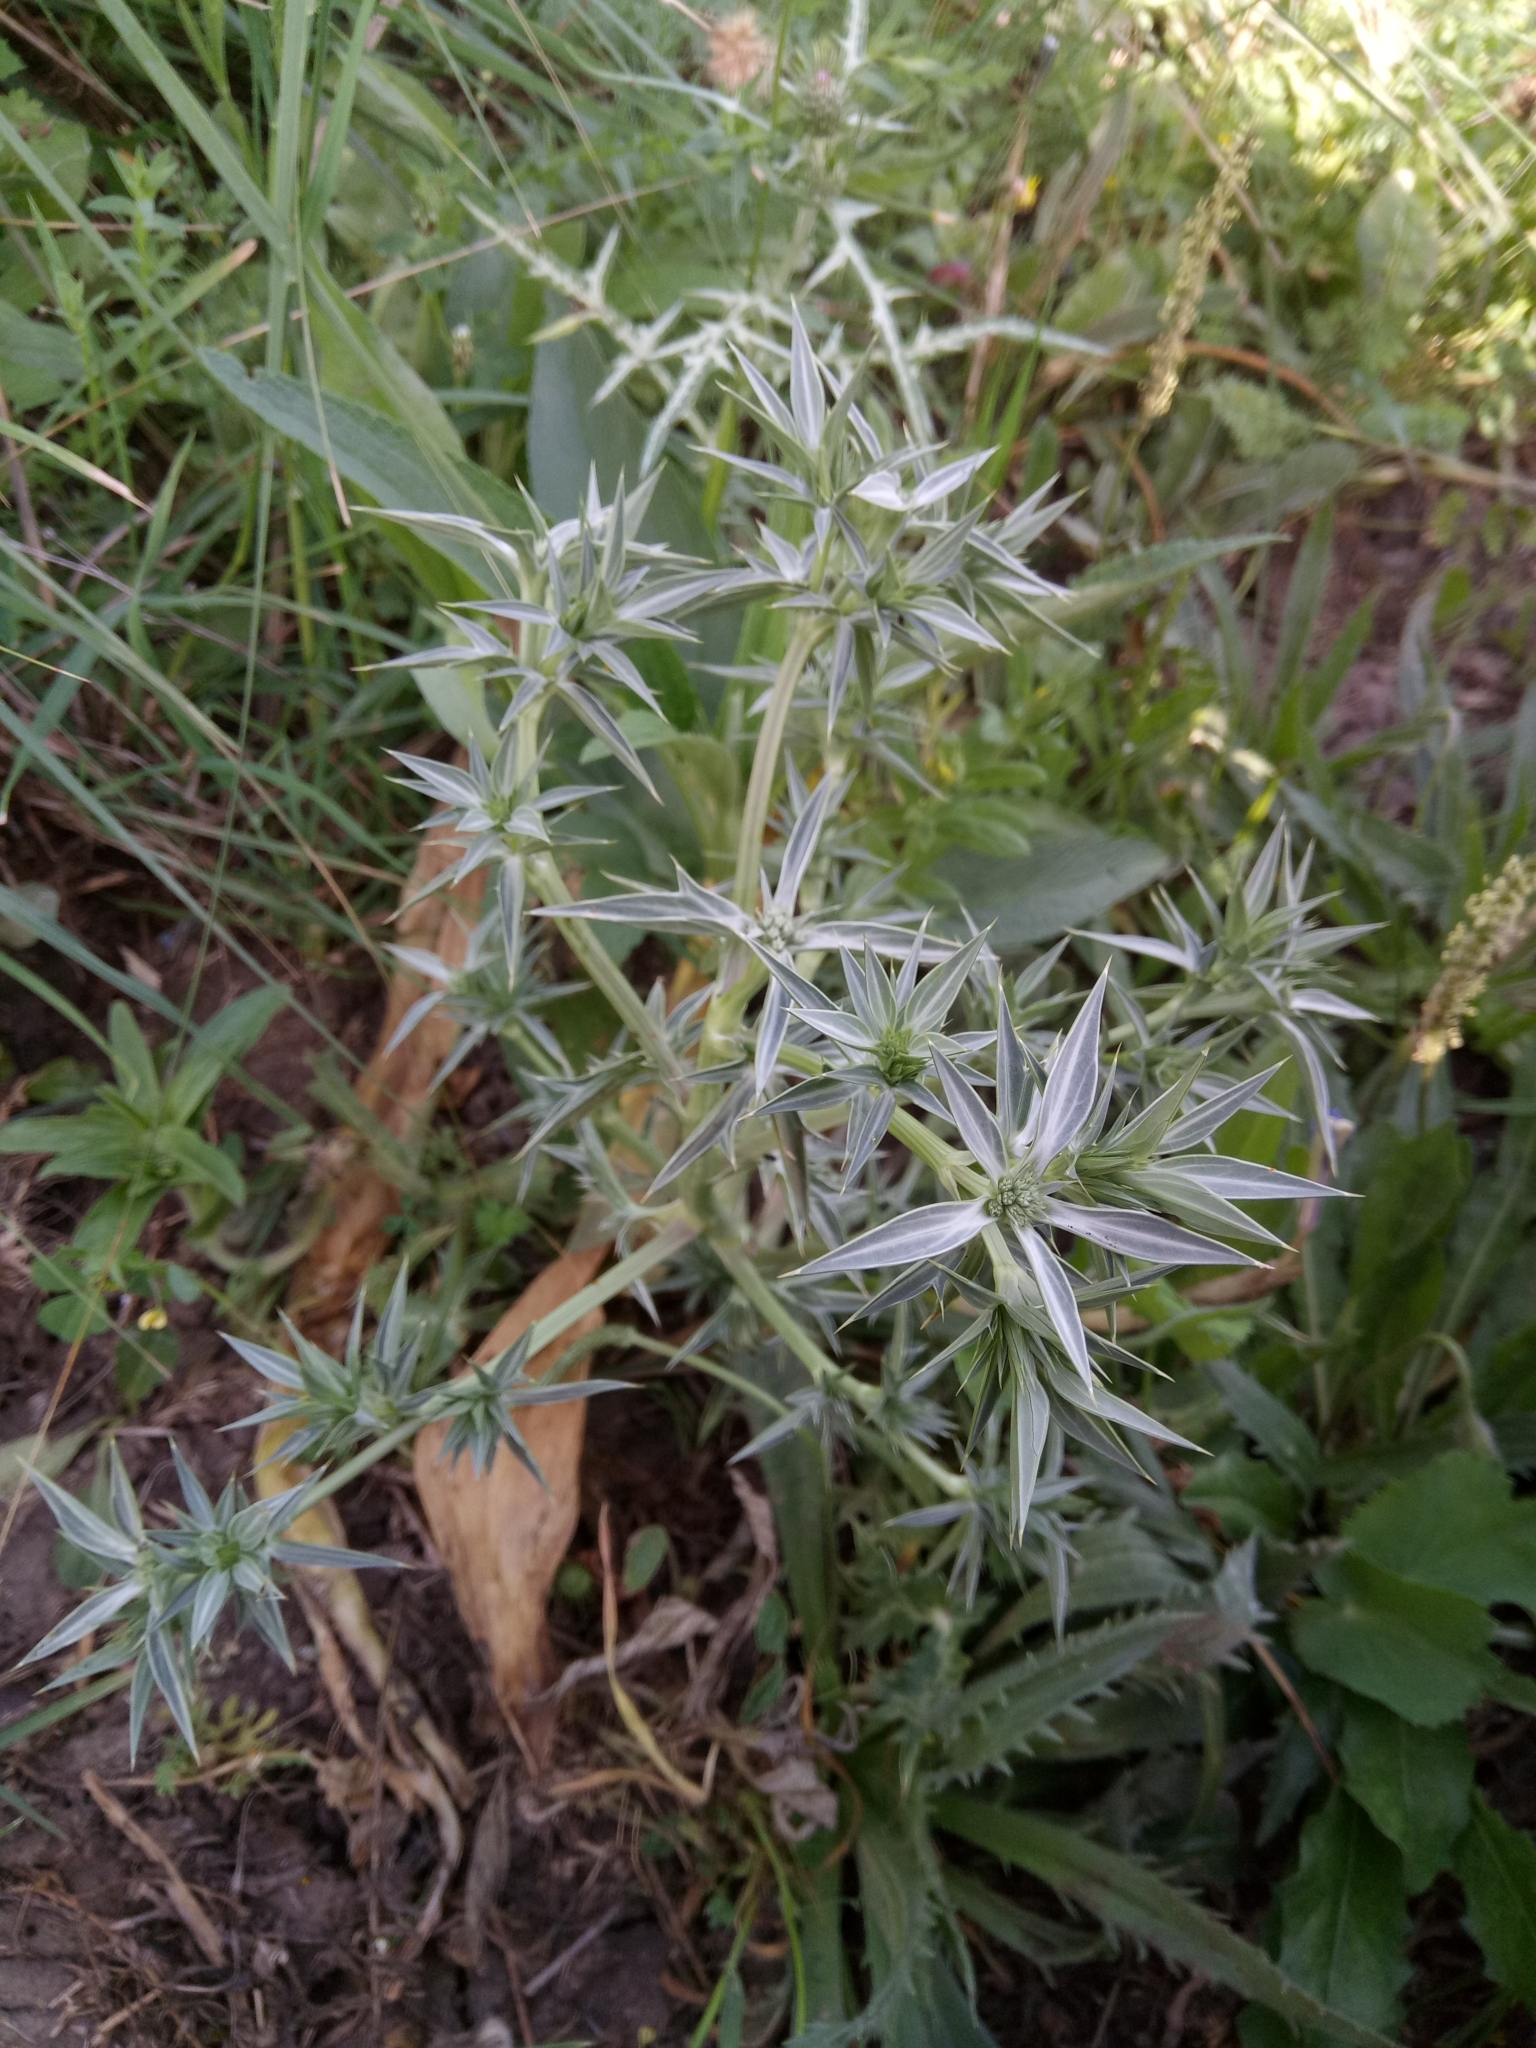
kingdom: Plantae
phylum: Tracheophyta
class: Magnoliopsida
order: Apiales
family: Apiaceae
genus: Eryngium
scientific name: Eryngium triquetrum
